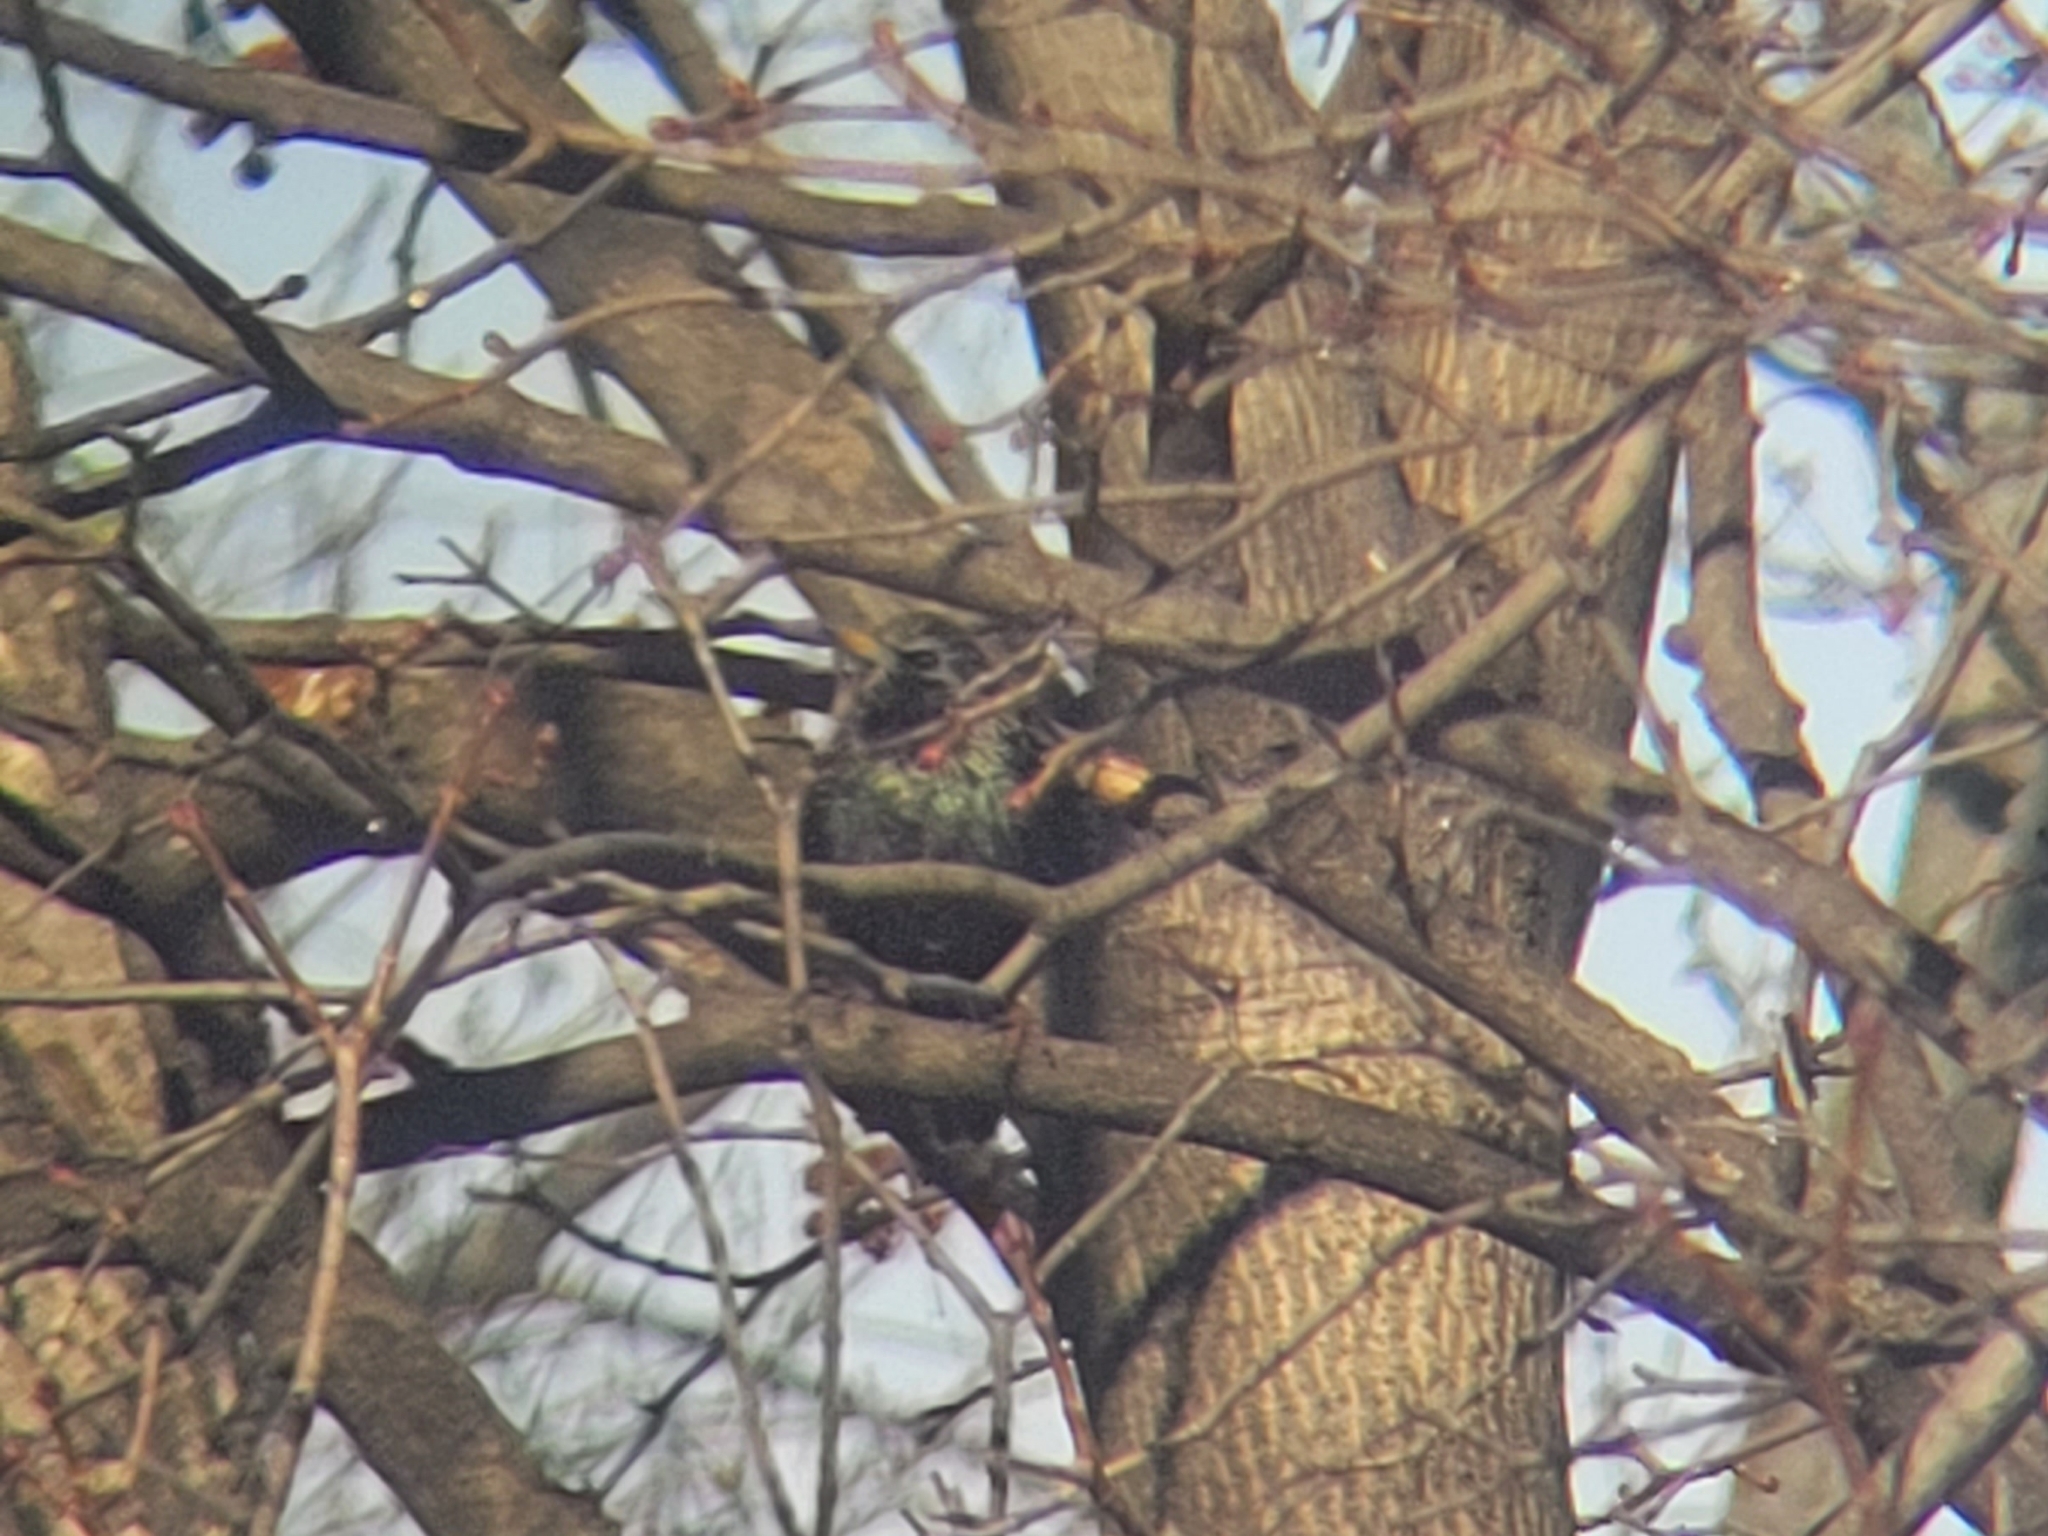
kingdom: Animalia
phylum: Chordata
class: Aves
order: Passeriformes
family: Sturnidae
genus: Sturnus
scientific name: Sturnus vulgaris
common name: Common starling
